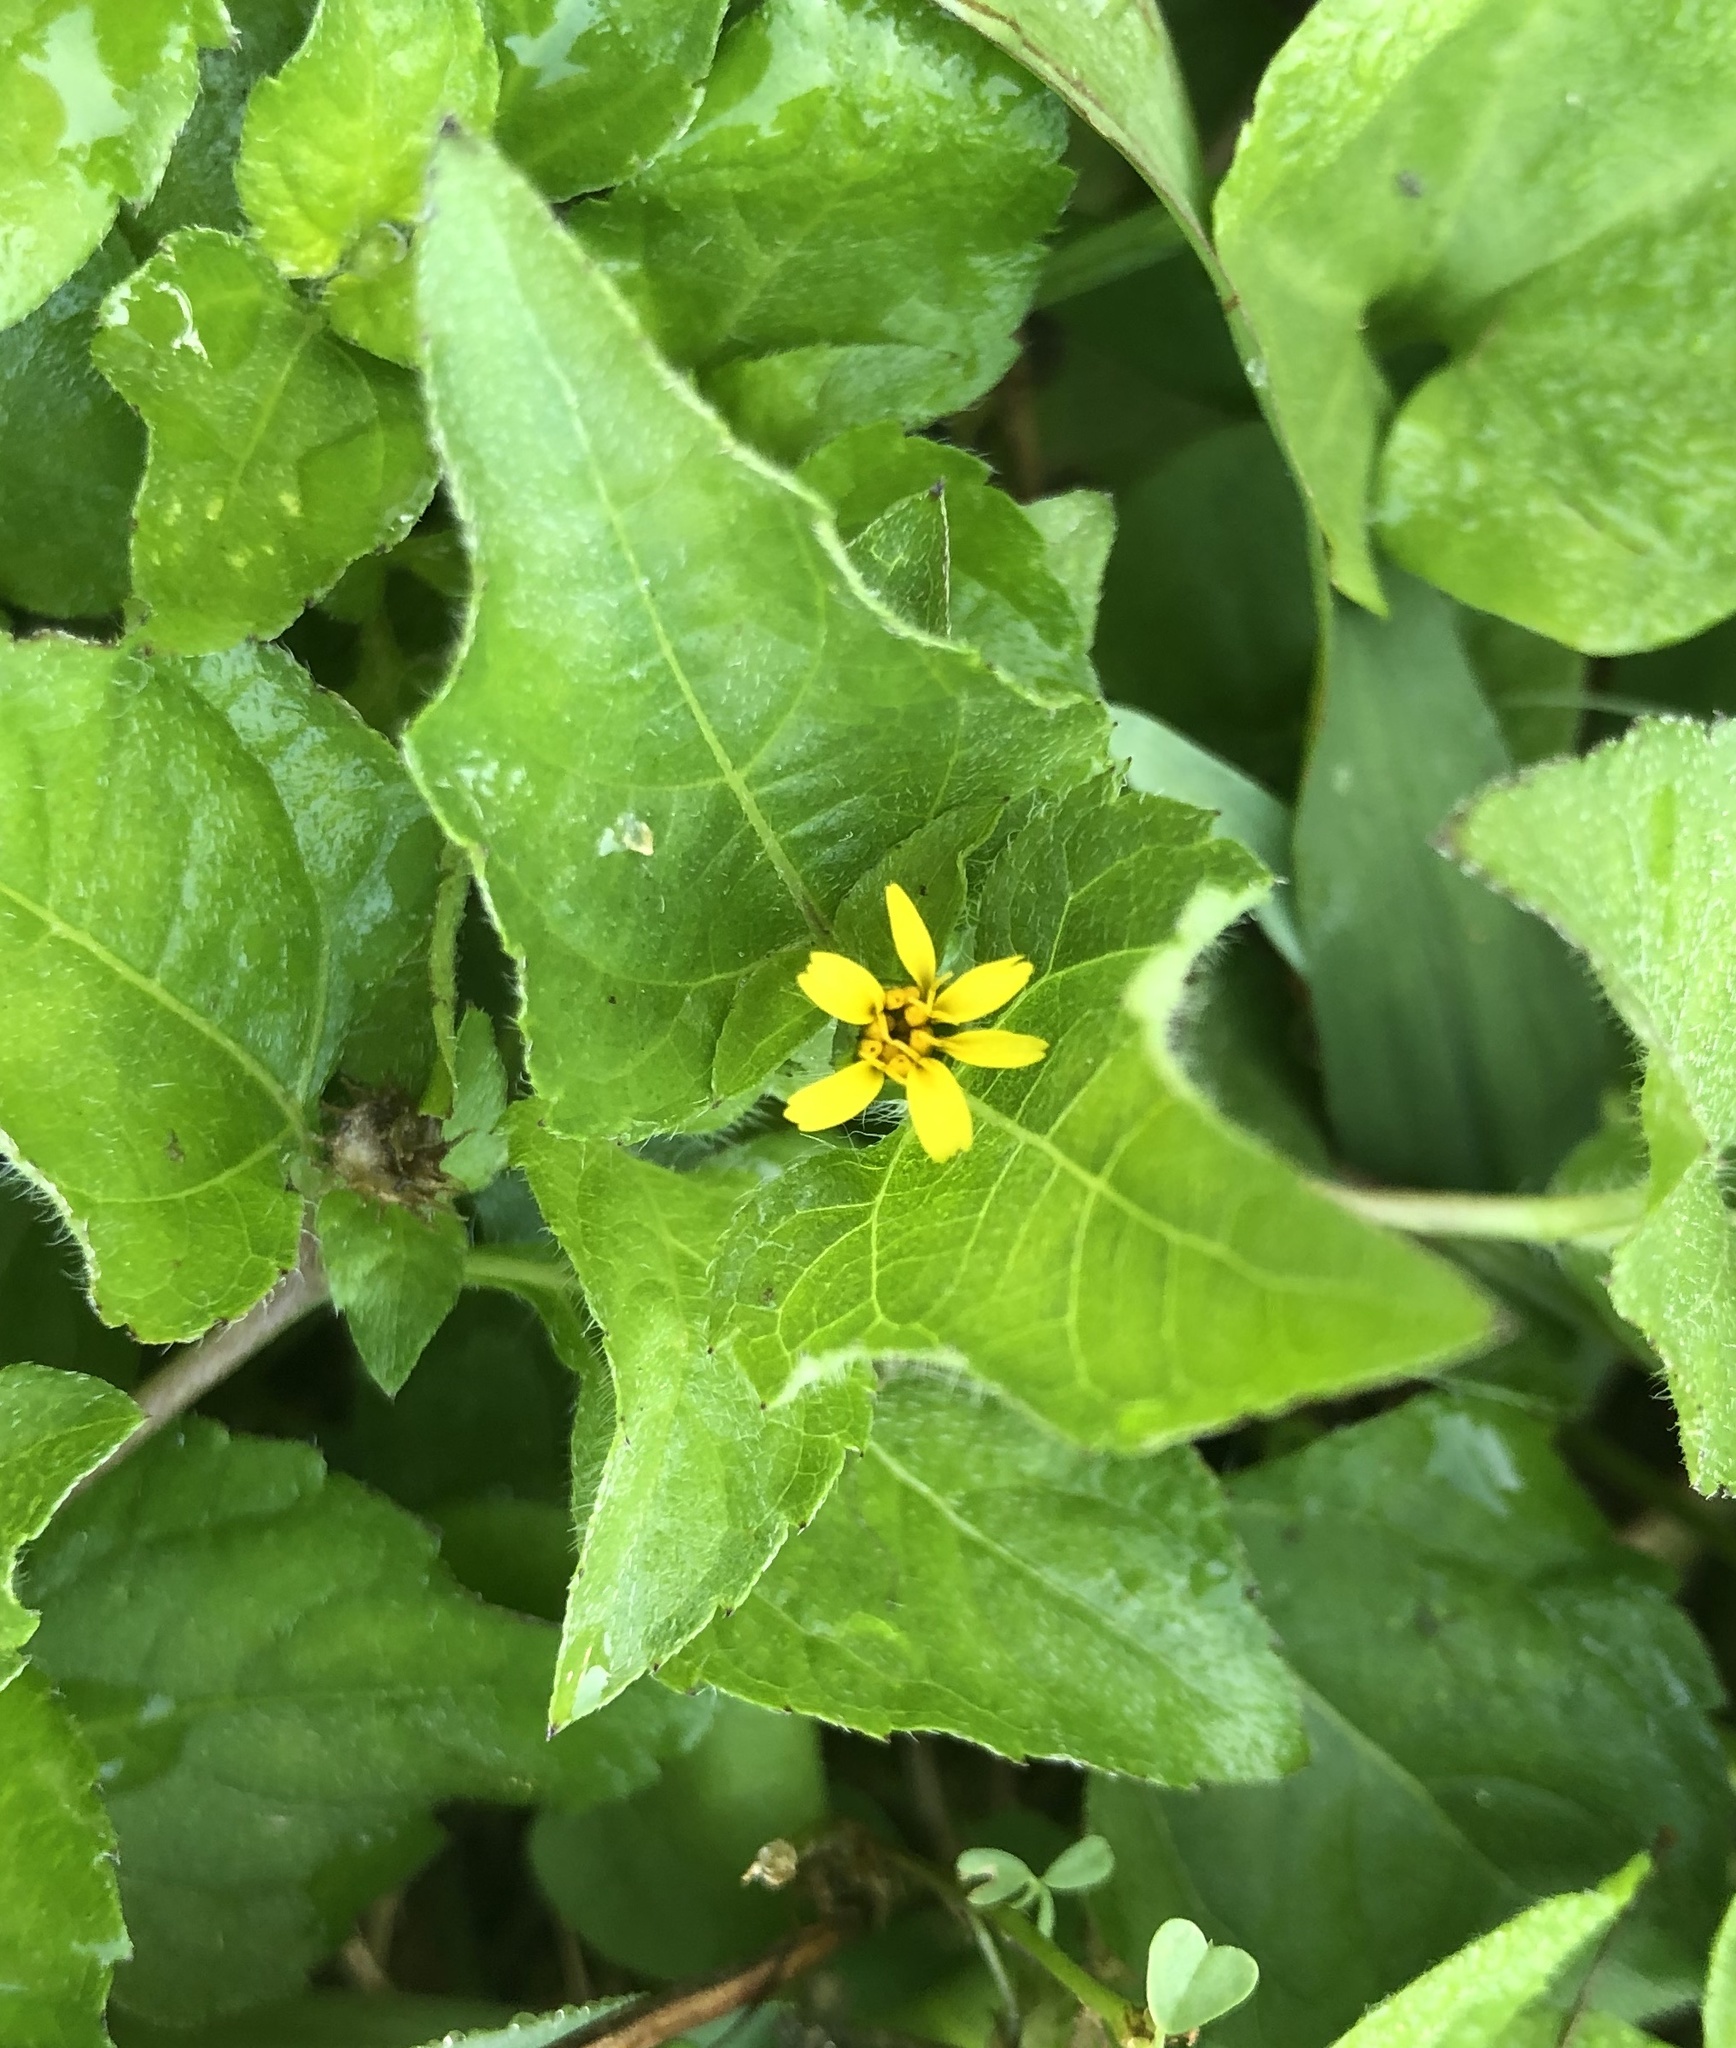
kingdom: Plantae
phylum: Tracheophyta
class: Magnoliopsida
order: Asterales
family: Asteraceae
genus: Calyptocarpus
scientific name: Calyptocarpus vialis
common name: Straggler daisy
